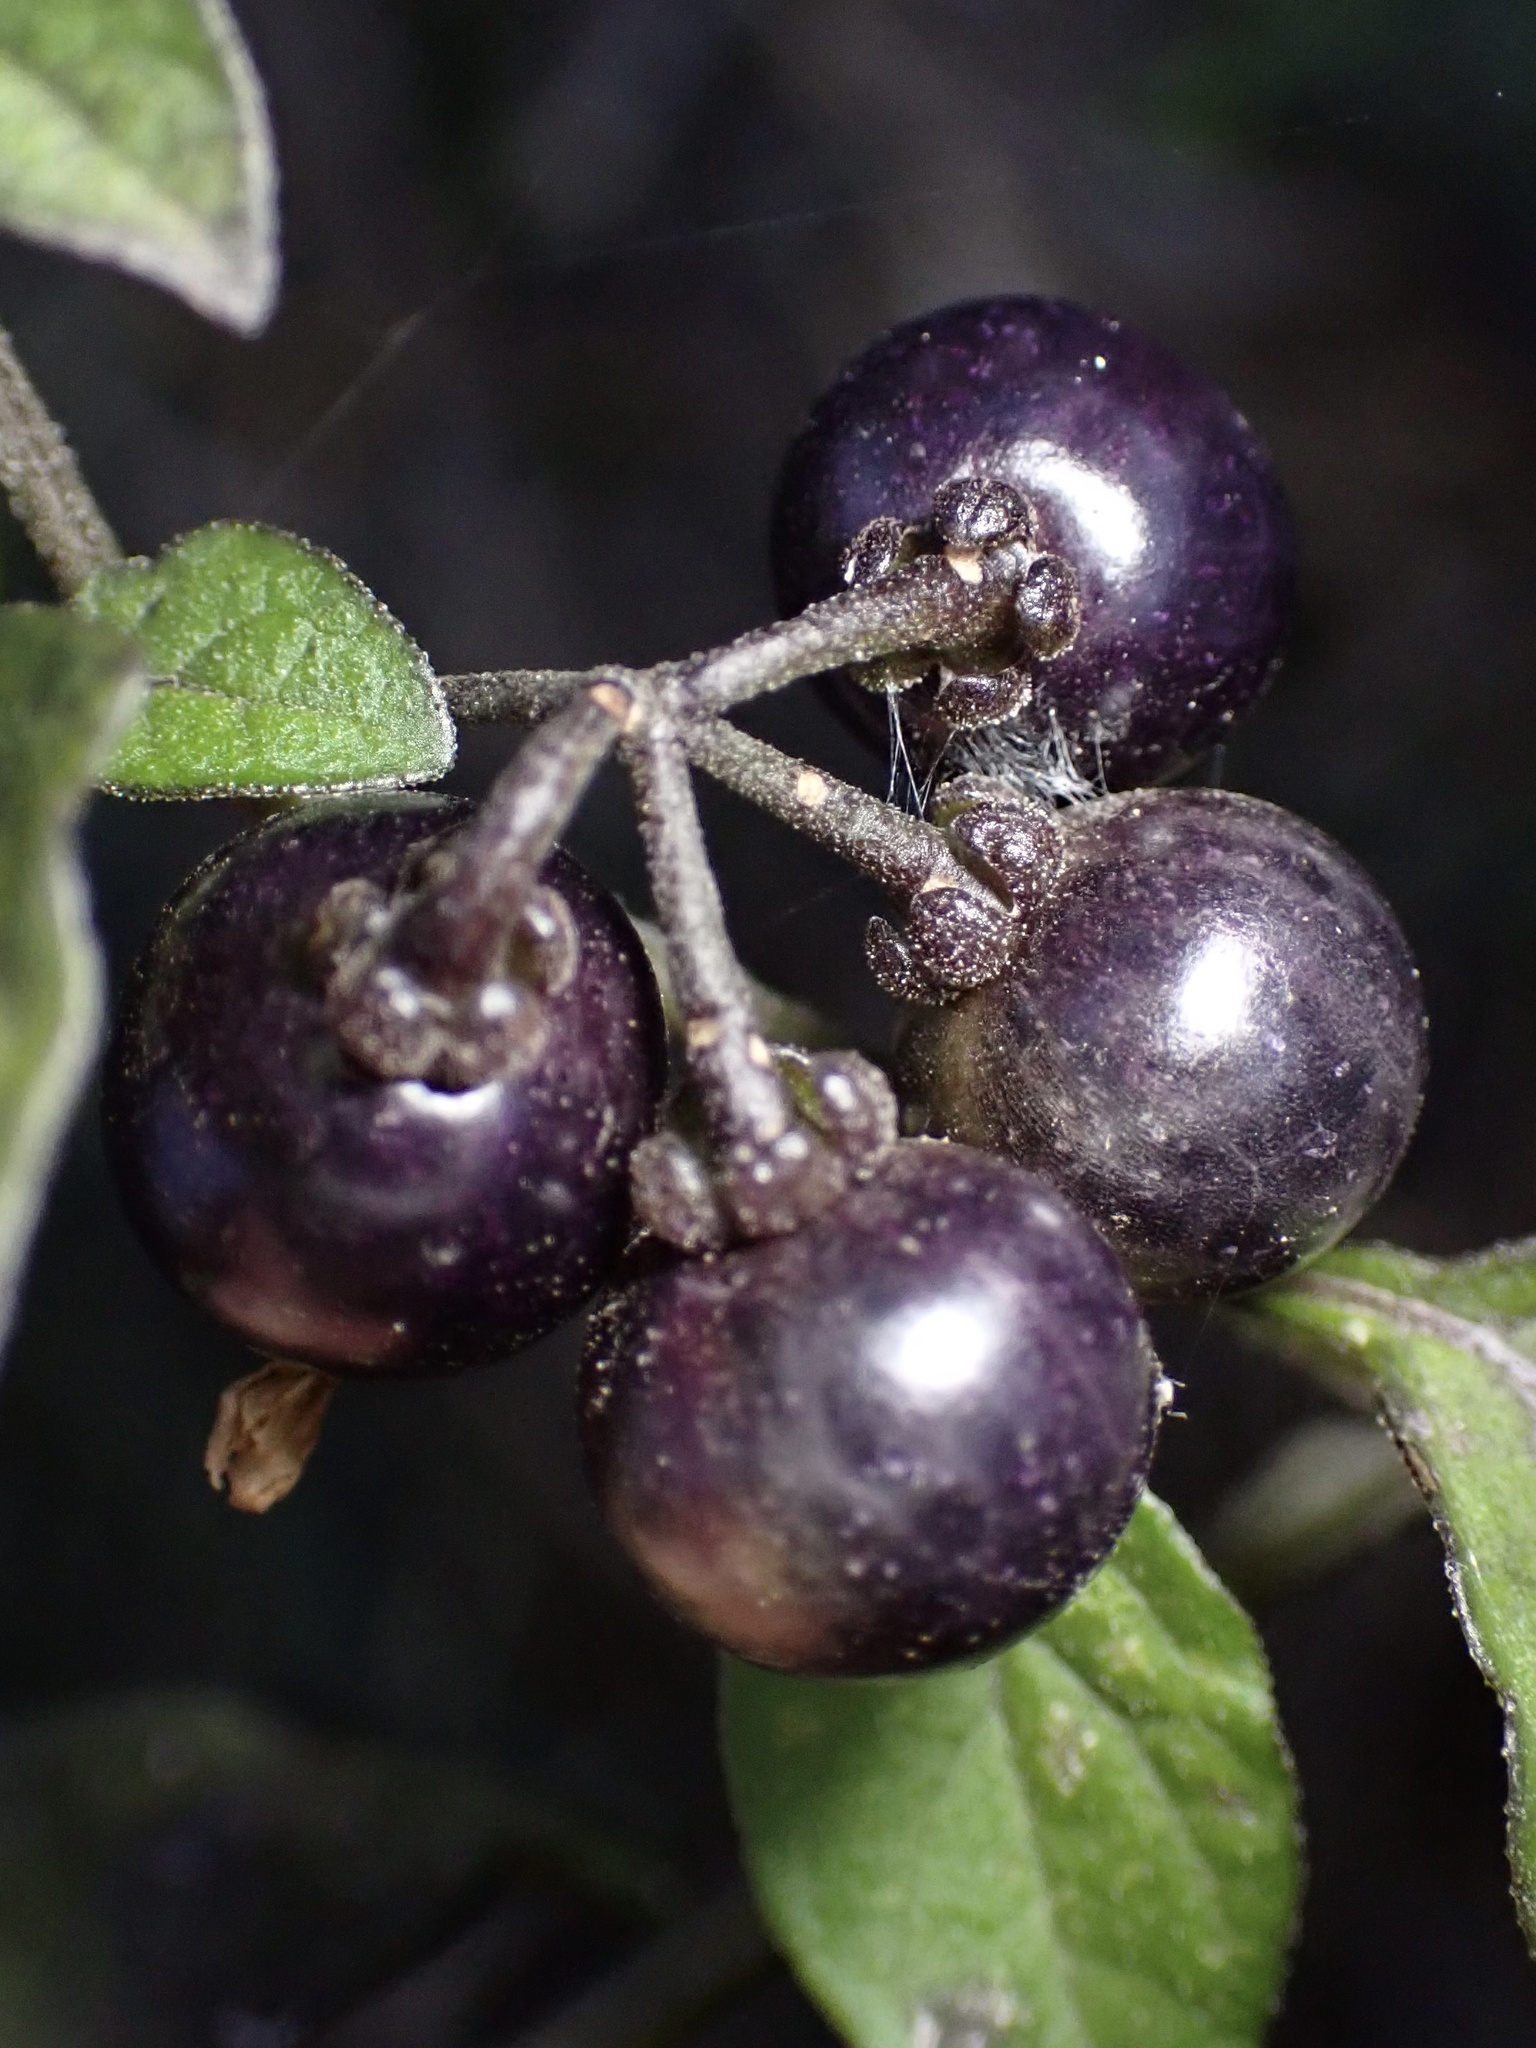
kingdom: Plantae
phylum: Tracheophyta
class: Magnoliopsida
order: Solanales
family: Solanaceae
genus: Solanum
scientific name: Solanum americanum
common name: American black nightshade
